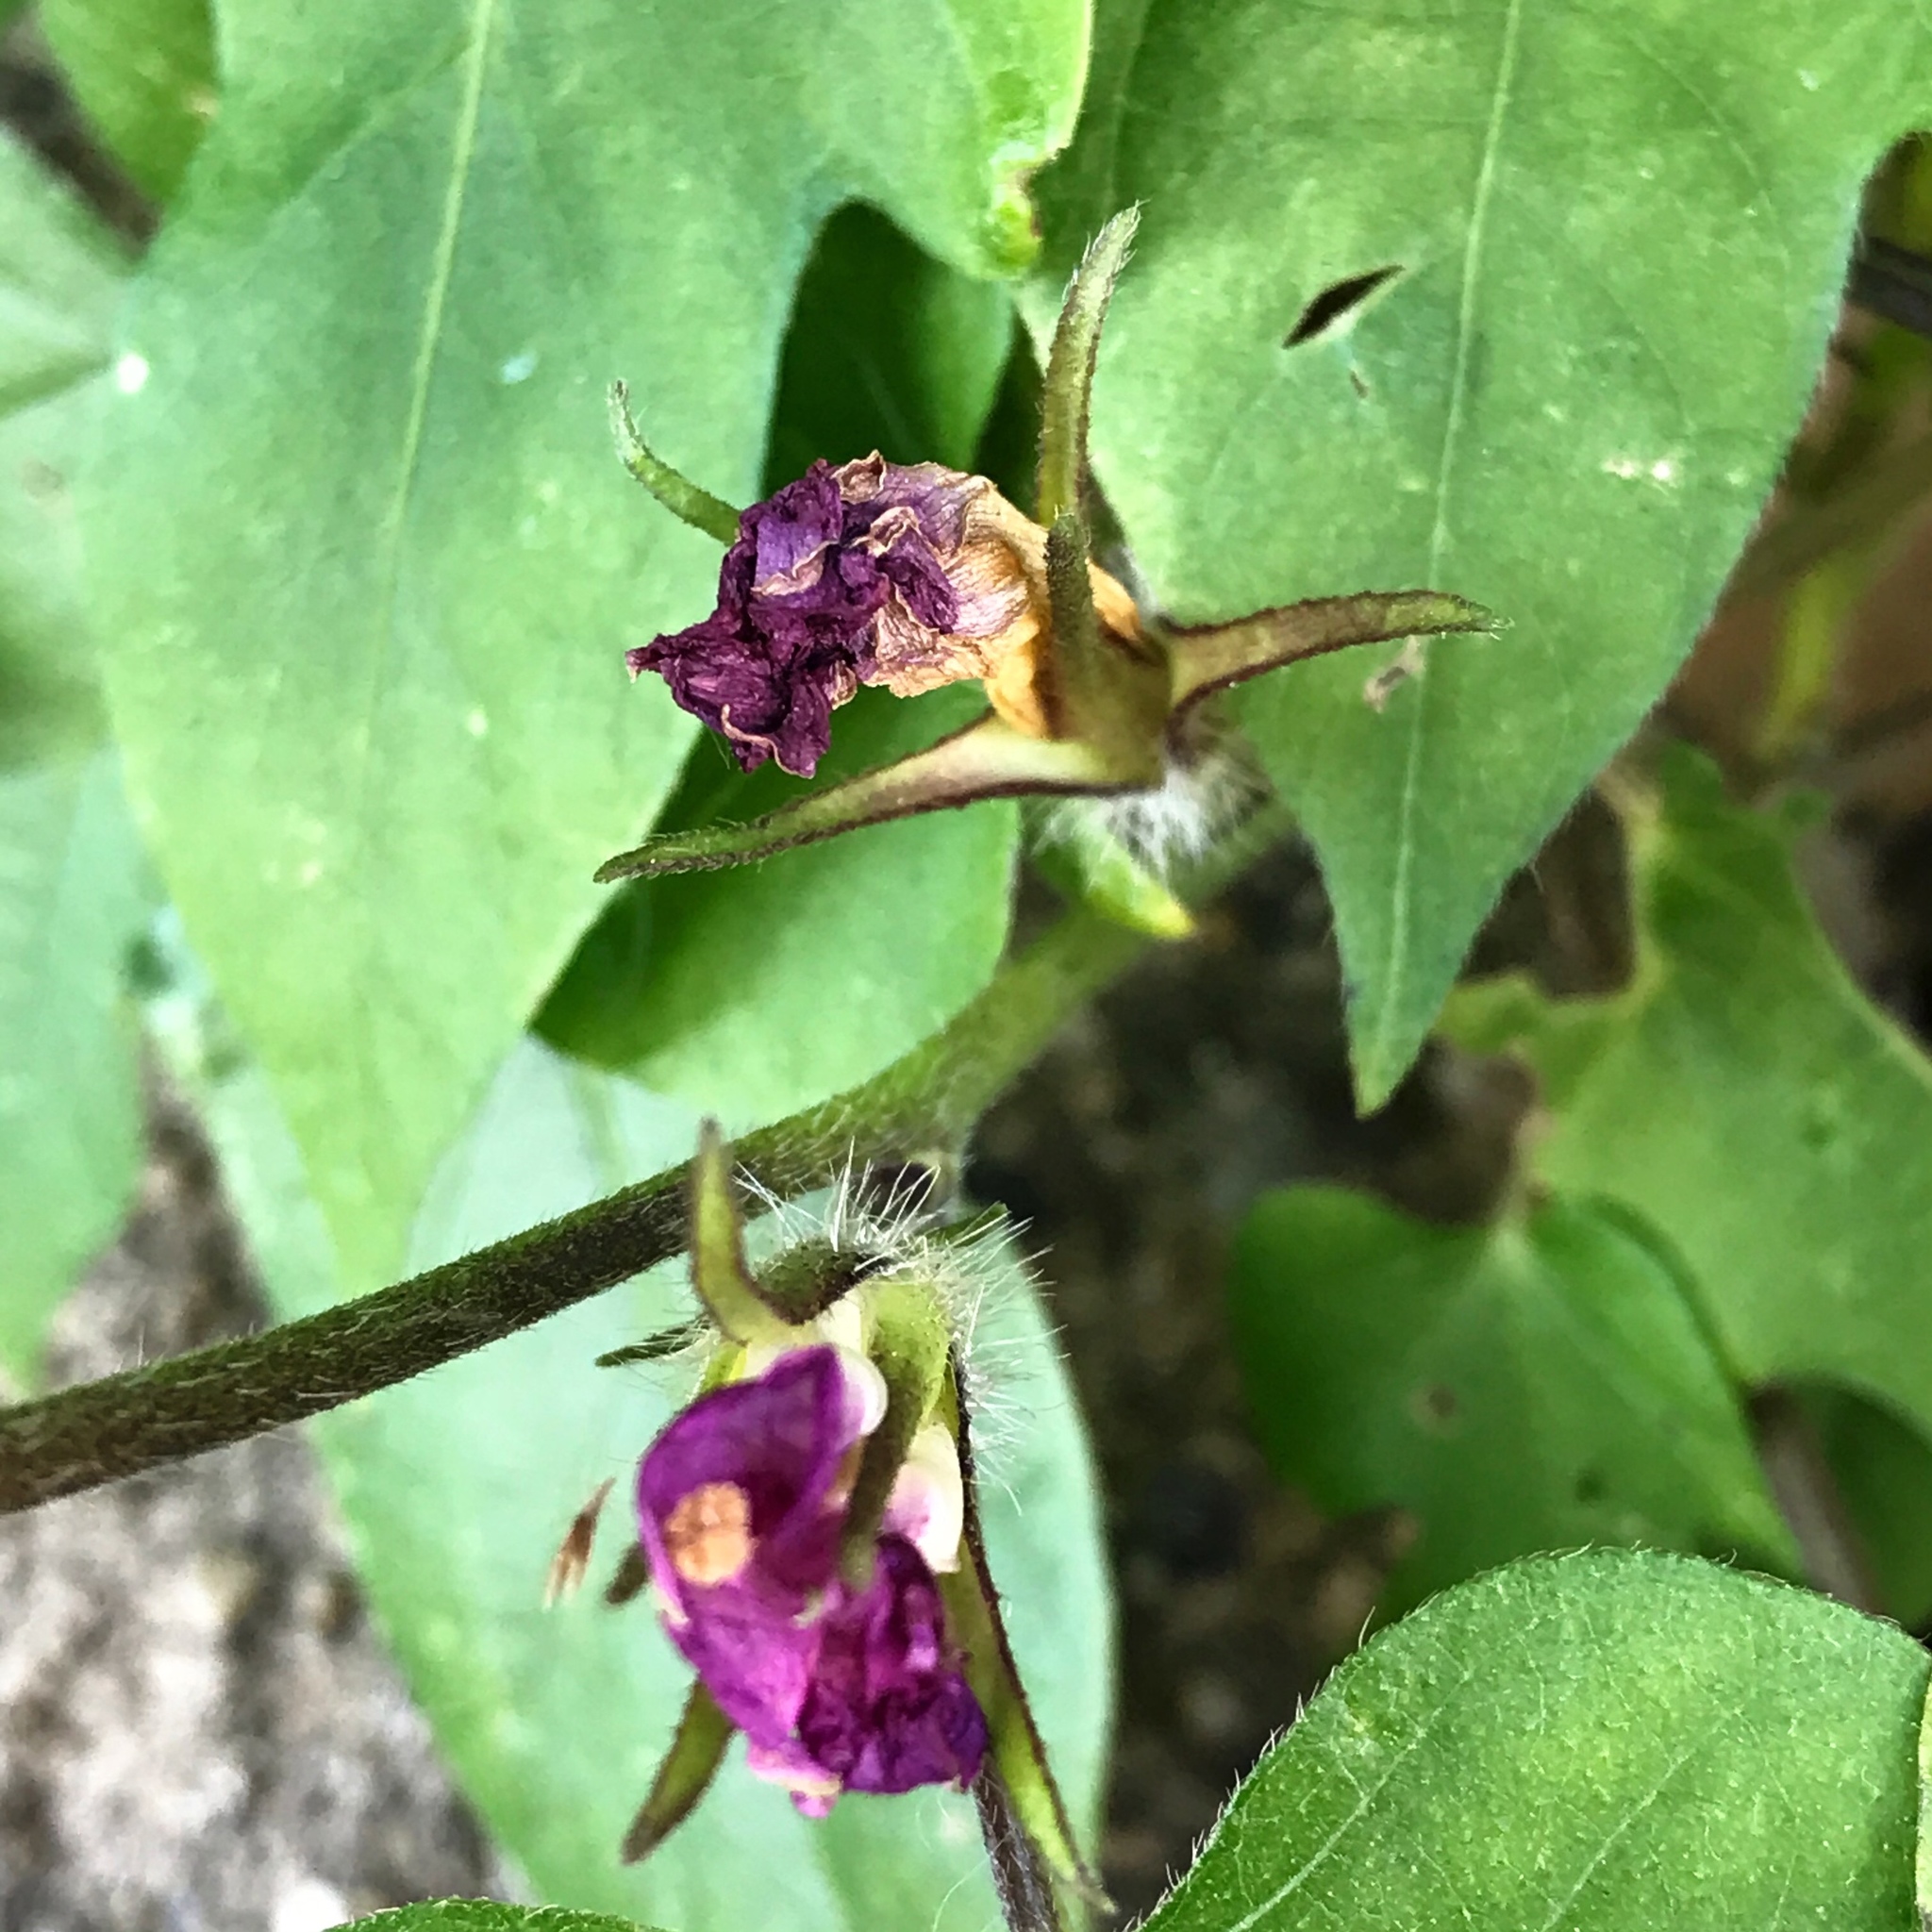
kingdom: Plantae
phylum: Tracheophyta
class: Magnoliopsida
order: Solanales
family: Convolvulaceae
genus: Ipomoea
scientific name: Ipomoea hederacea
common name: Ivy-leaved morning-glory
